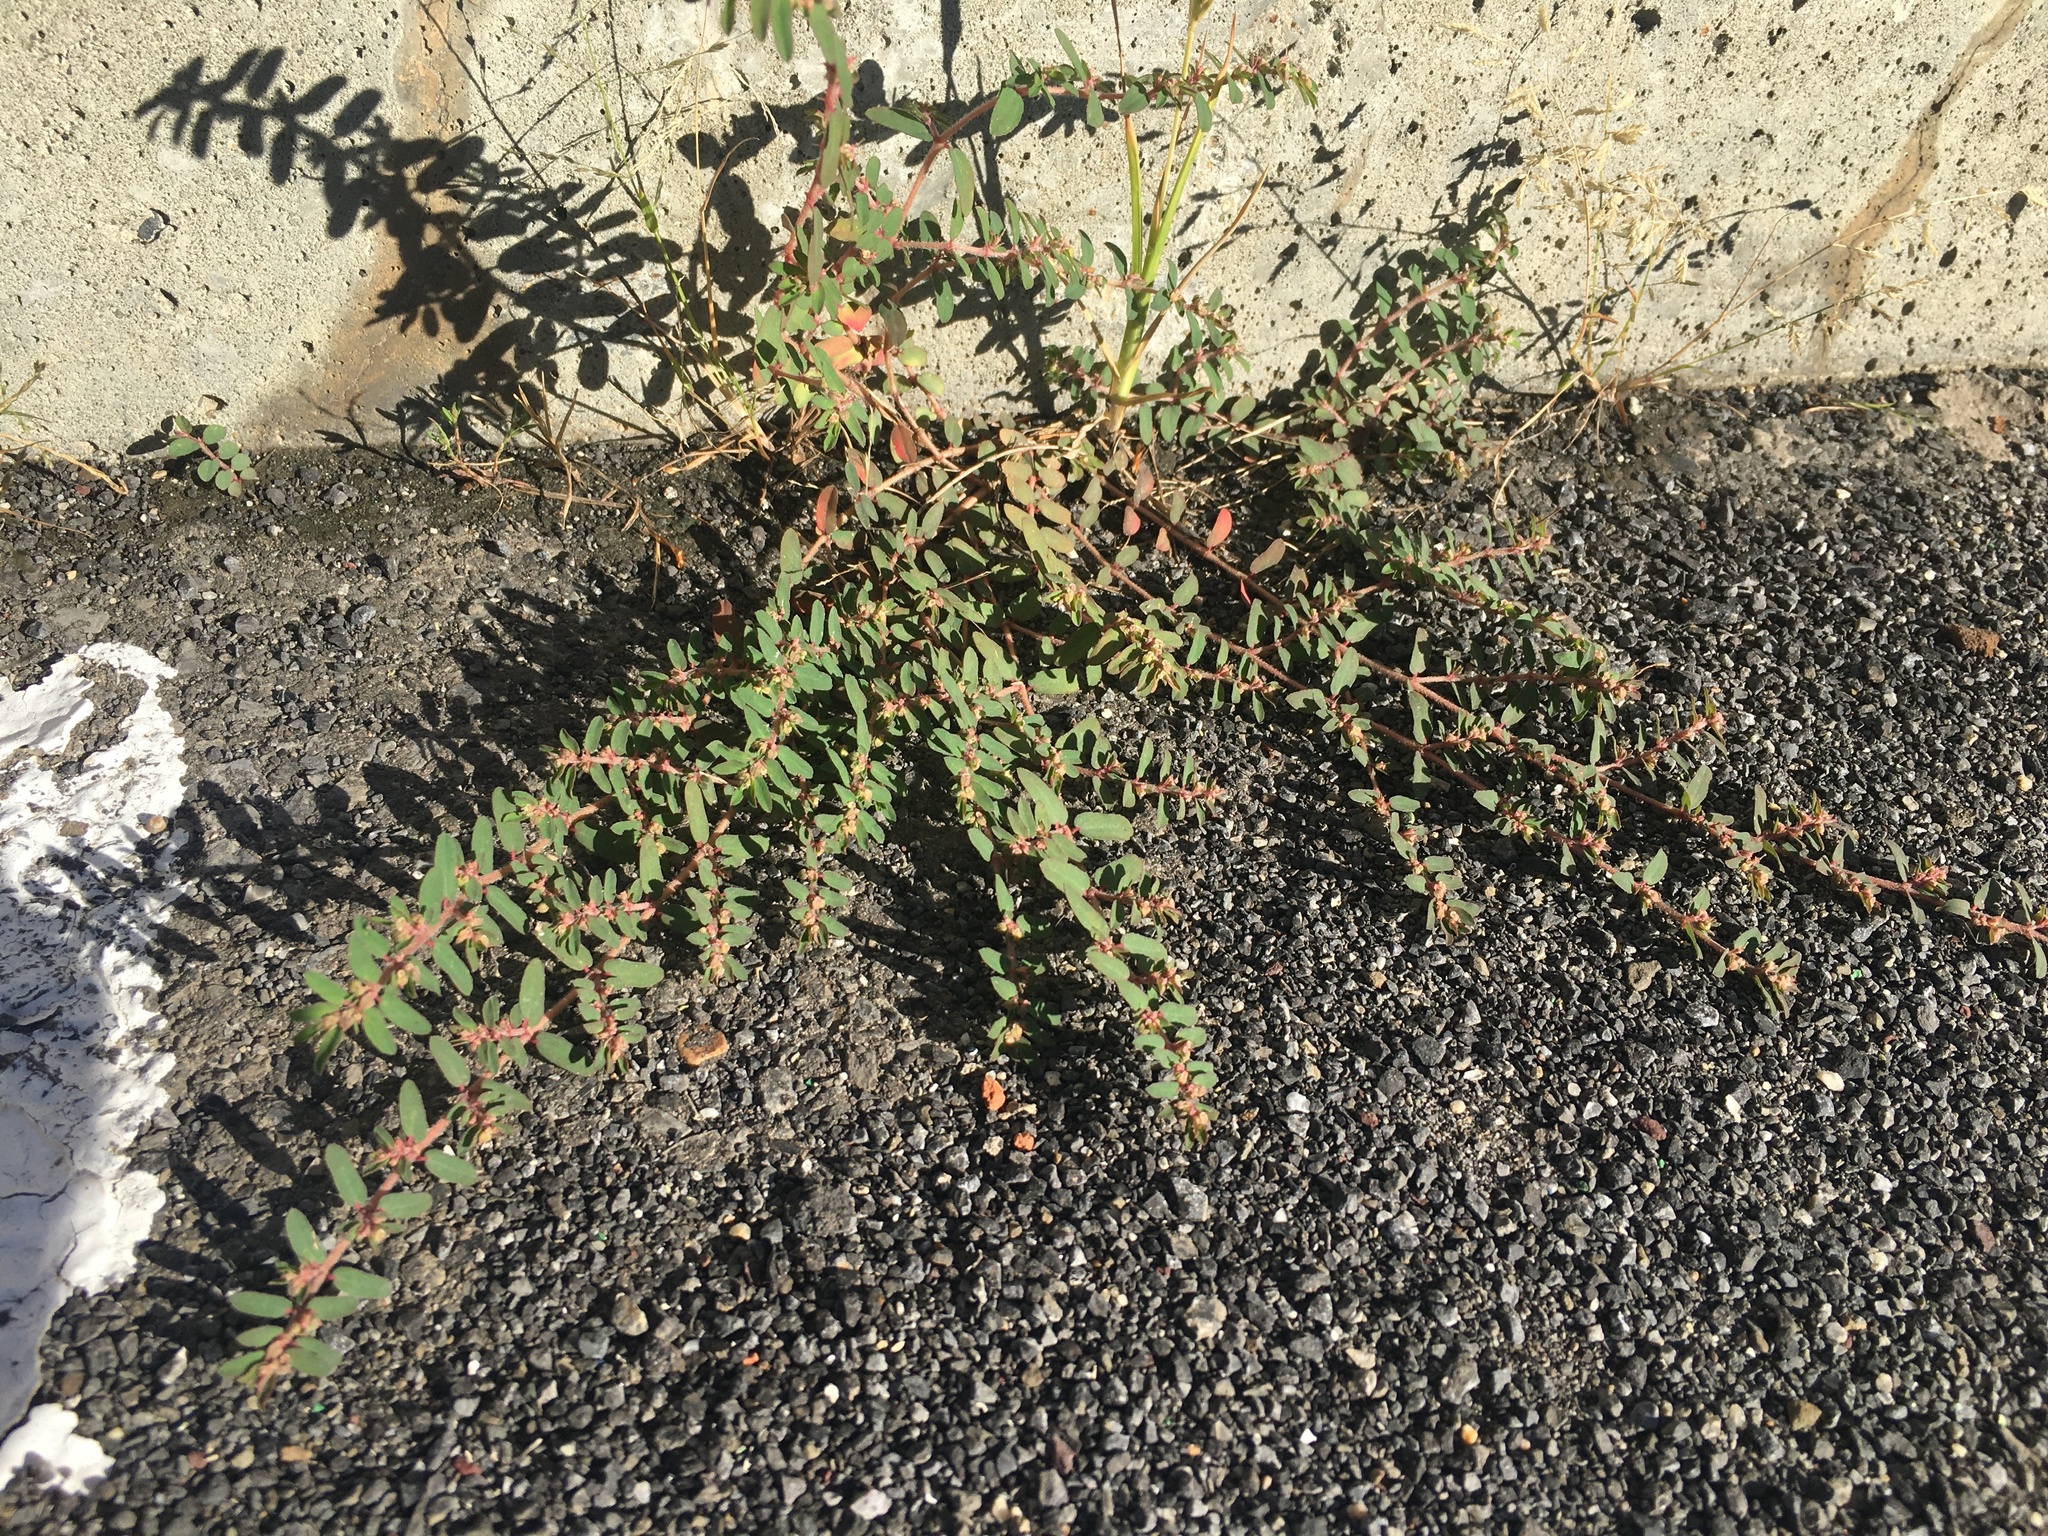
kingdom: Plantae
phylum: Tracheophyta
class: Magnoliopsida
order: Malpighiales
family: Euphorbiaceae
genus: Euphorbia
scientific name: Euphorbia maculata
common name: Spotted spurge
